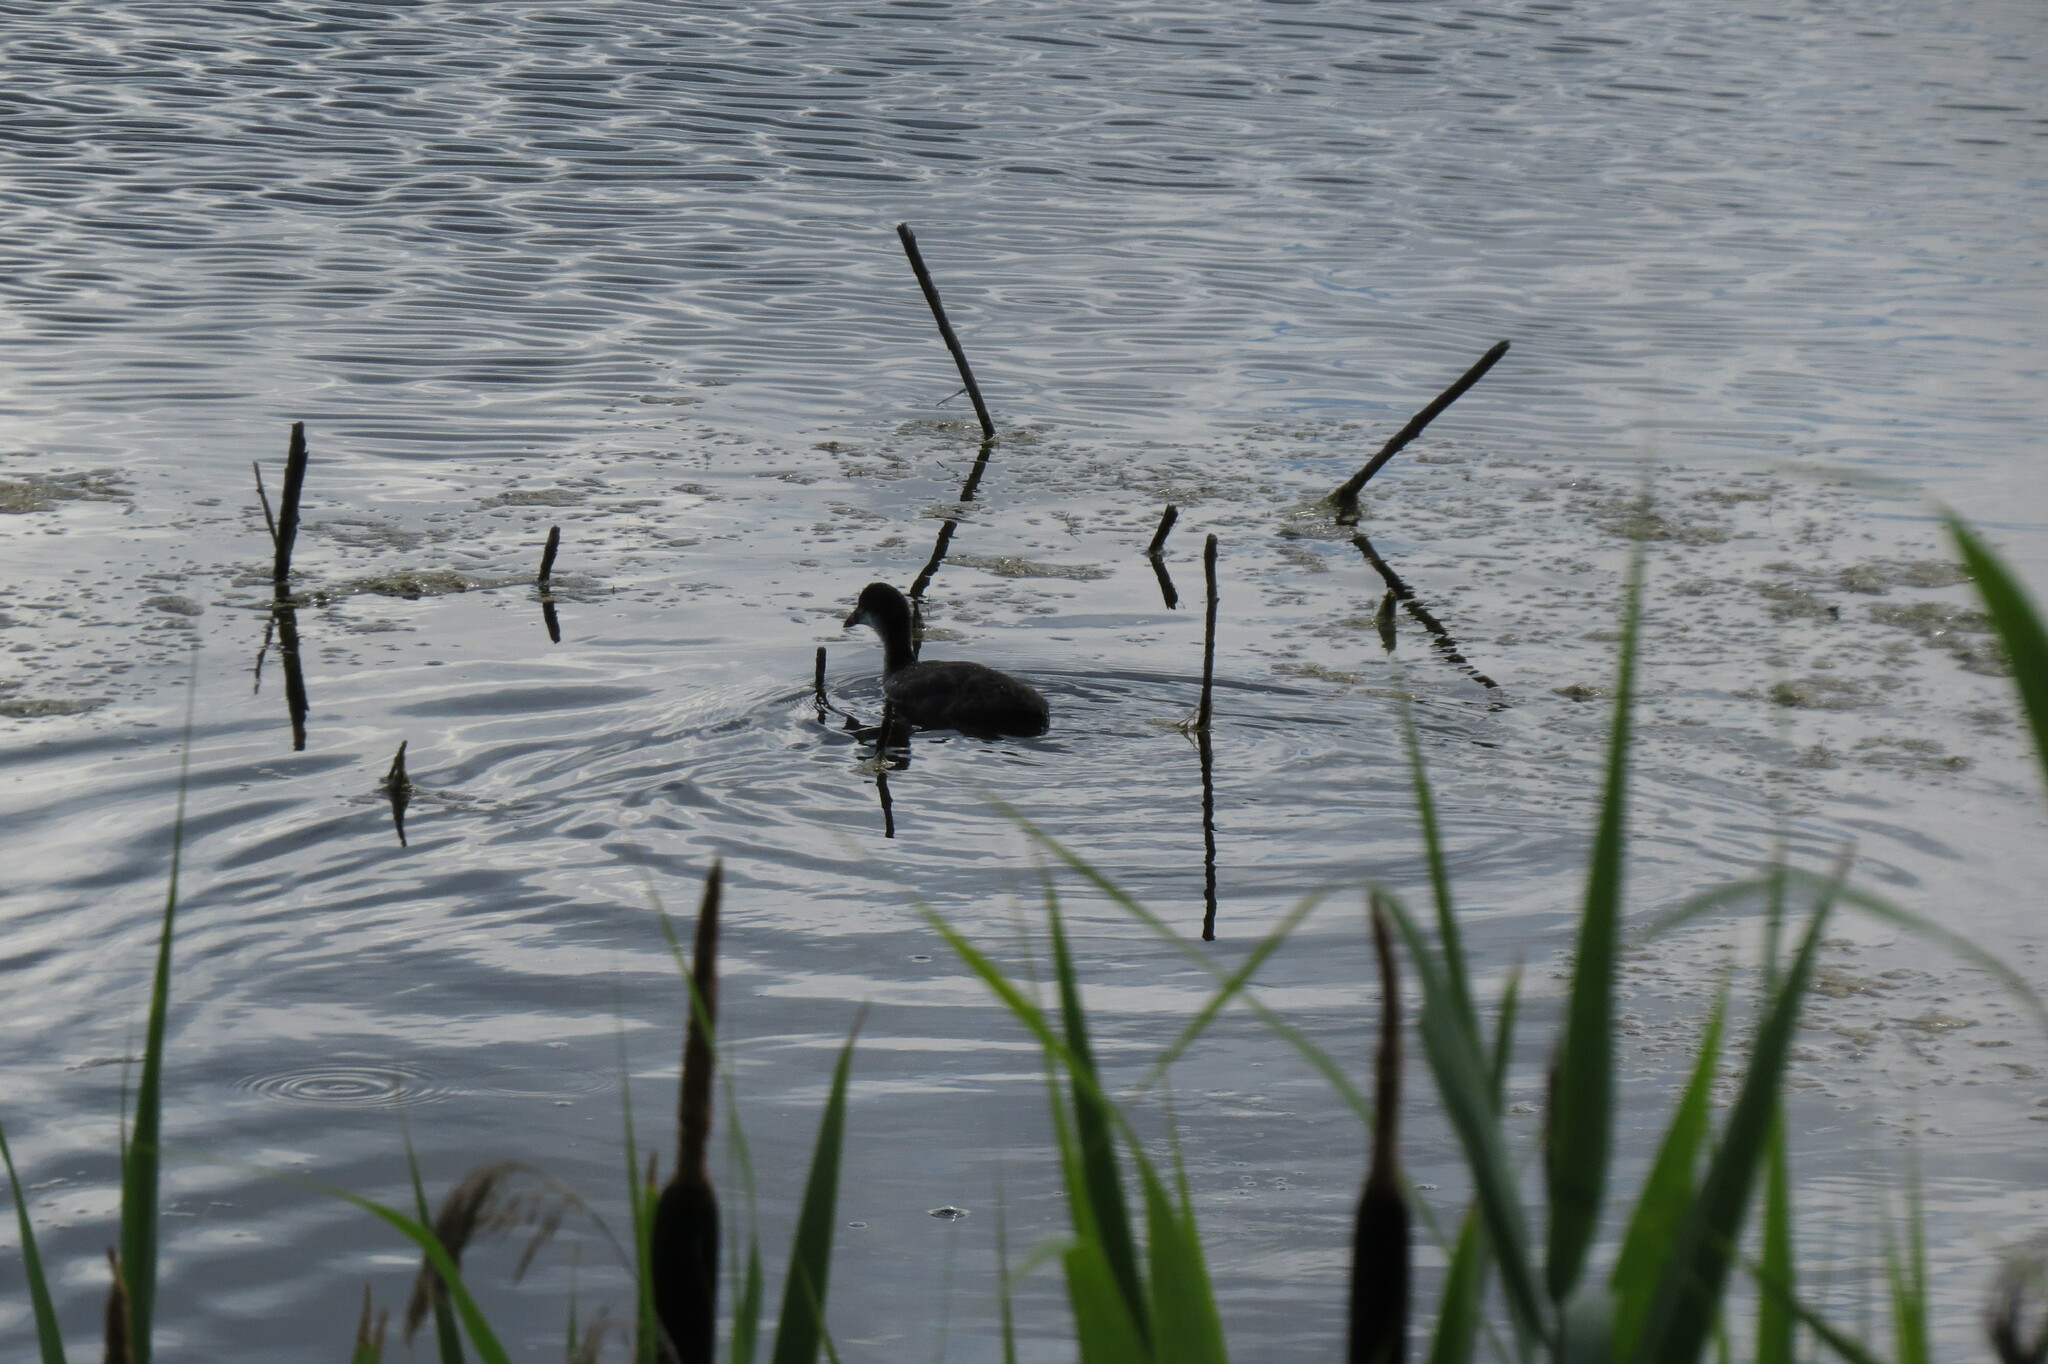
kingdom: Animalia
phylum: Chordata
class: Aves
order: Gruiformes
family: Rallidae
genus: Fulica
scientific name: Fulica atra
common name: Eurasian coot
